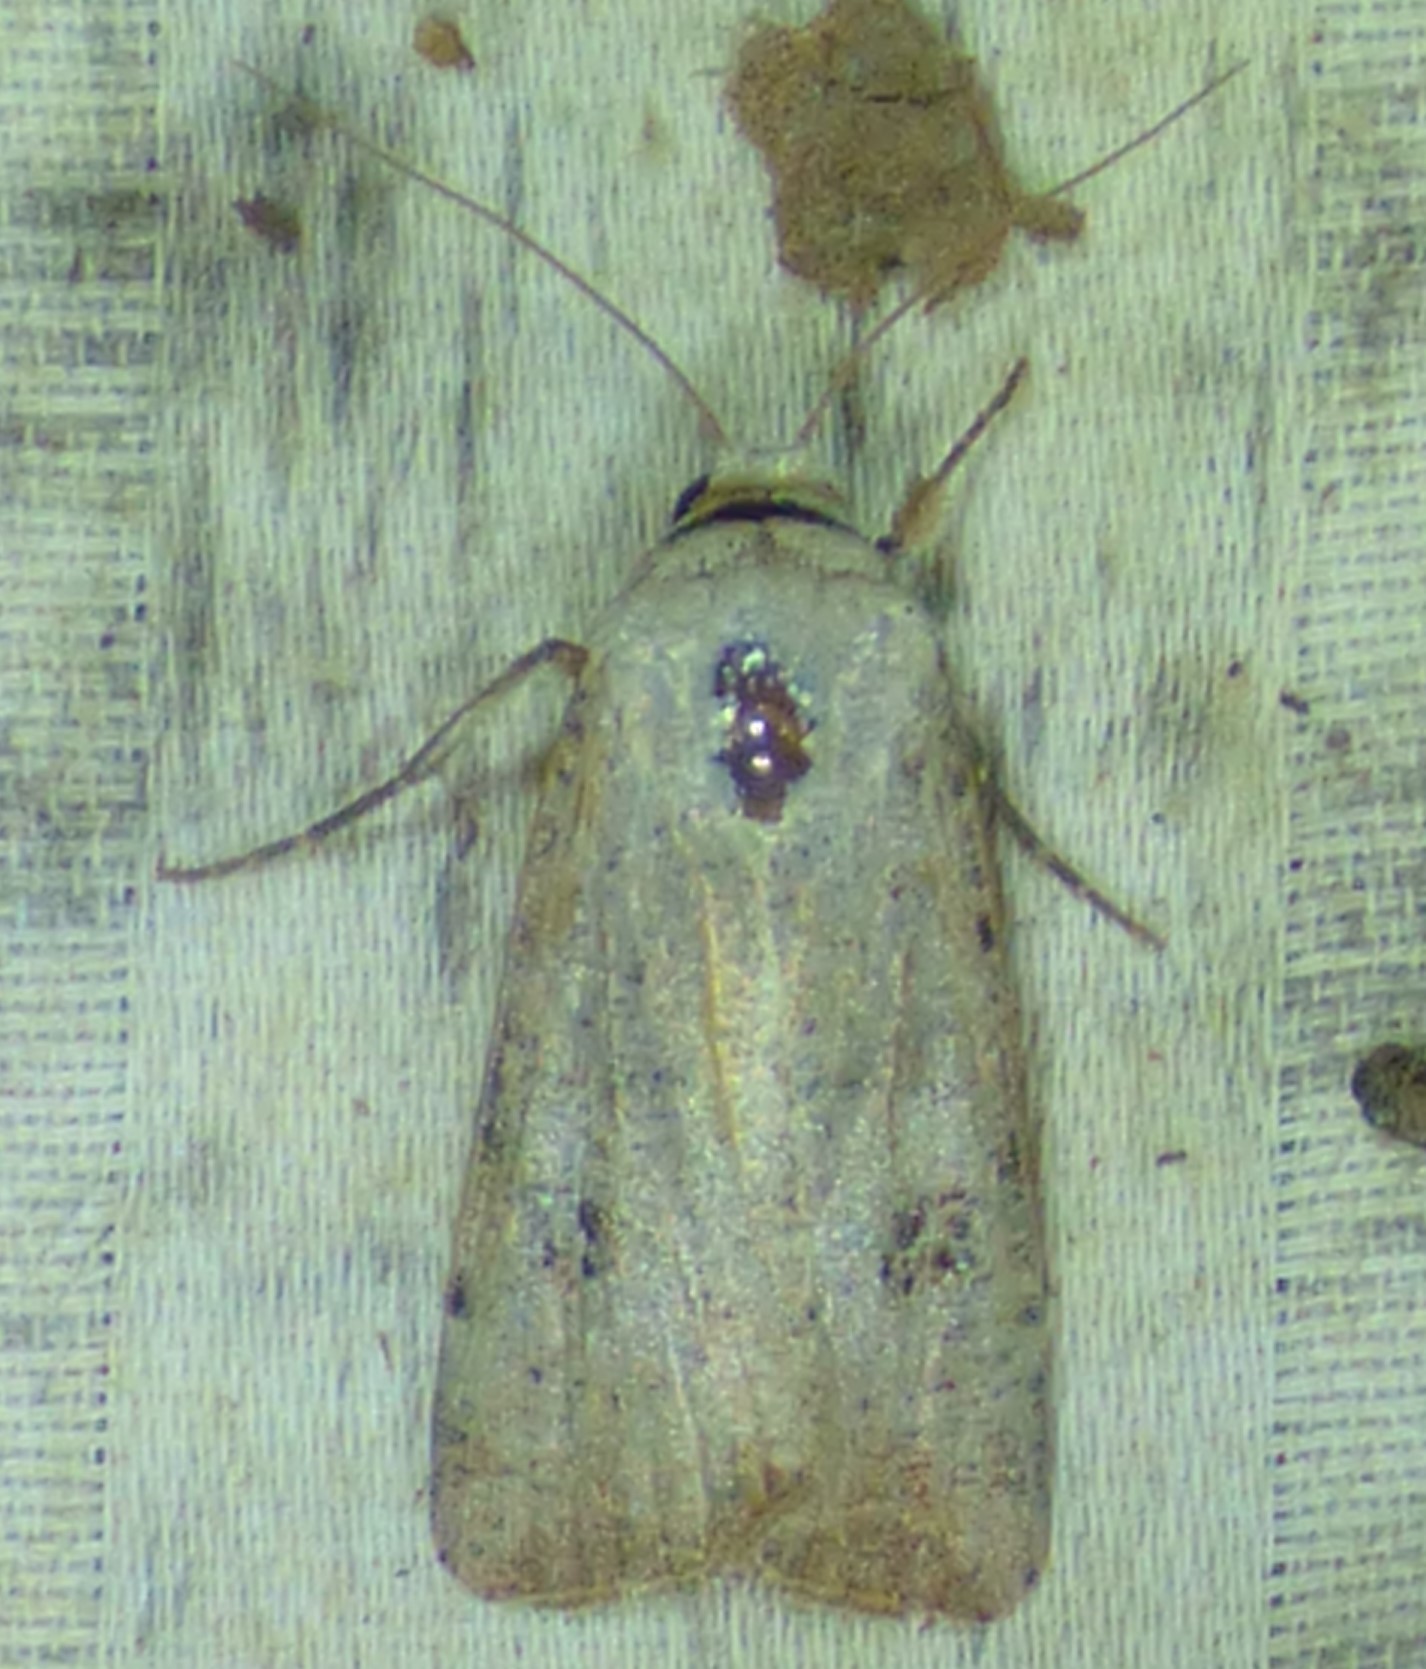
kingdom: Animalia
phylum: Arthropoda
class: Insecta
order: Lepidoptera
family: Noctuidae
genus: Anicla
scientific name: Anicla infecta
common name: Green cutworm
